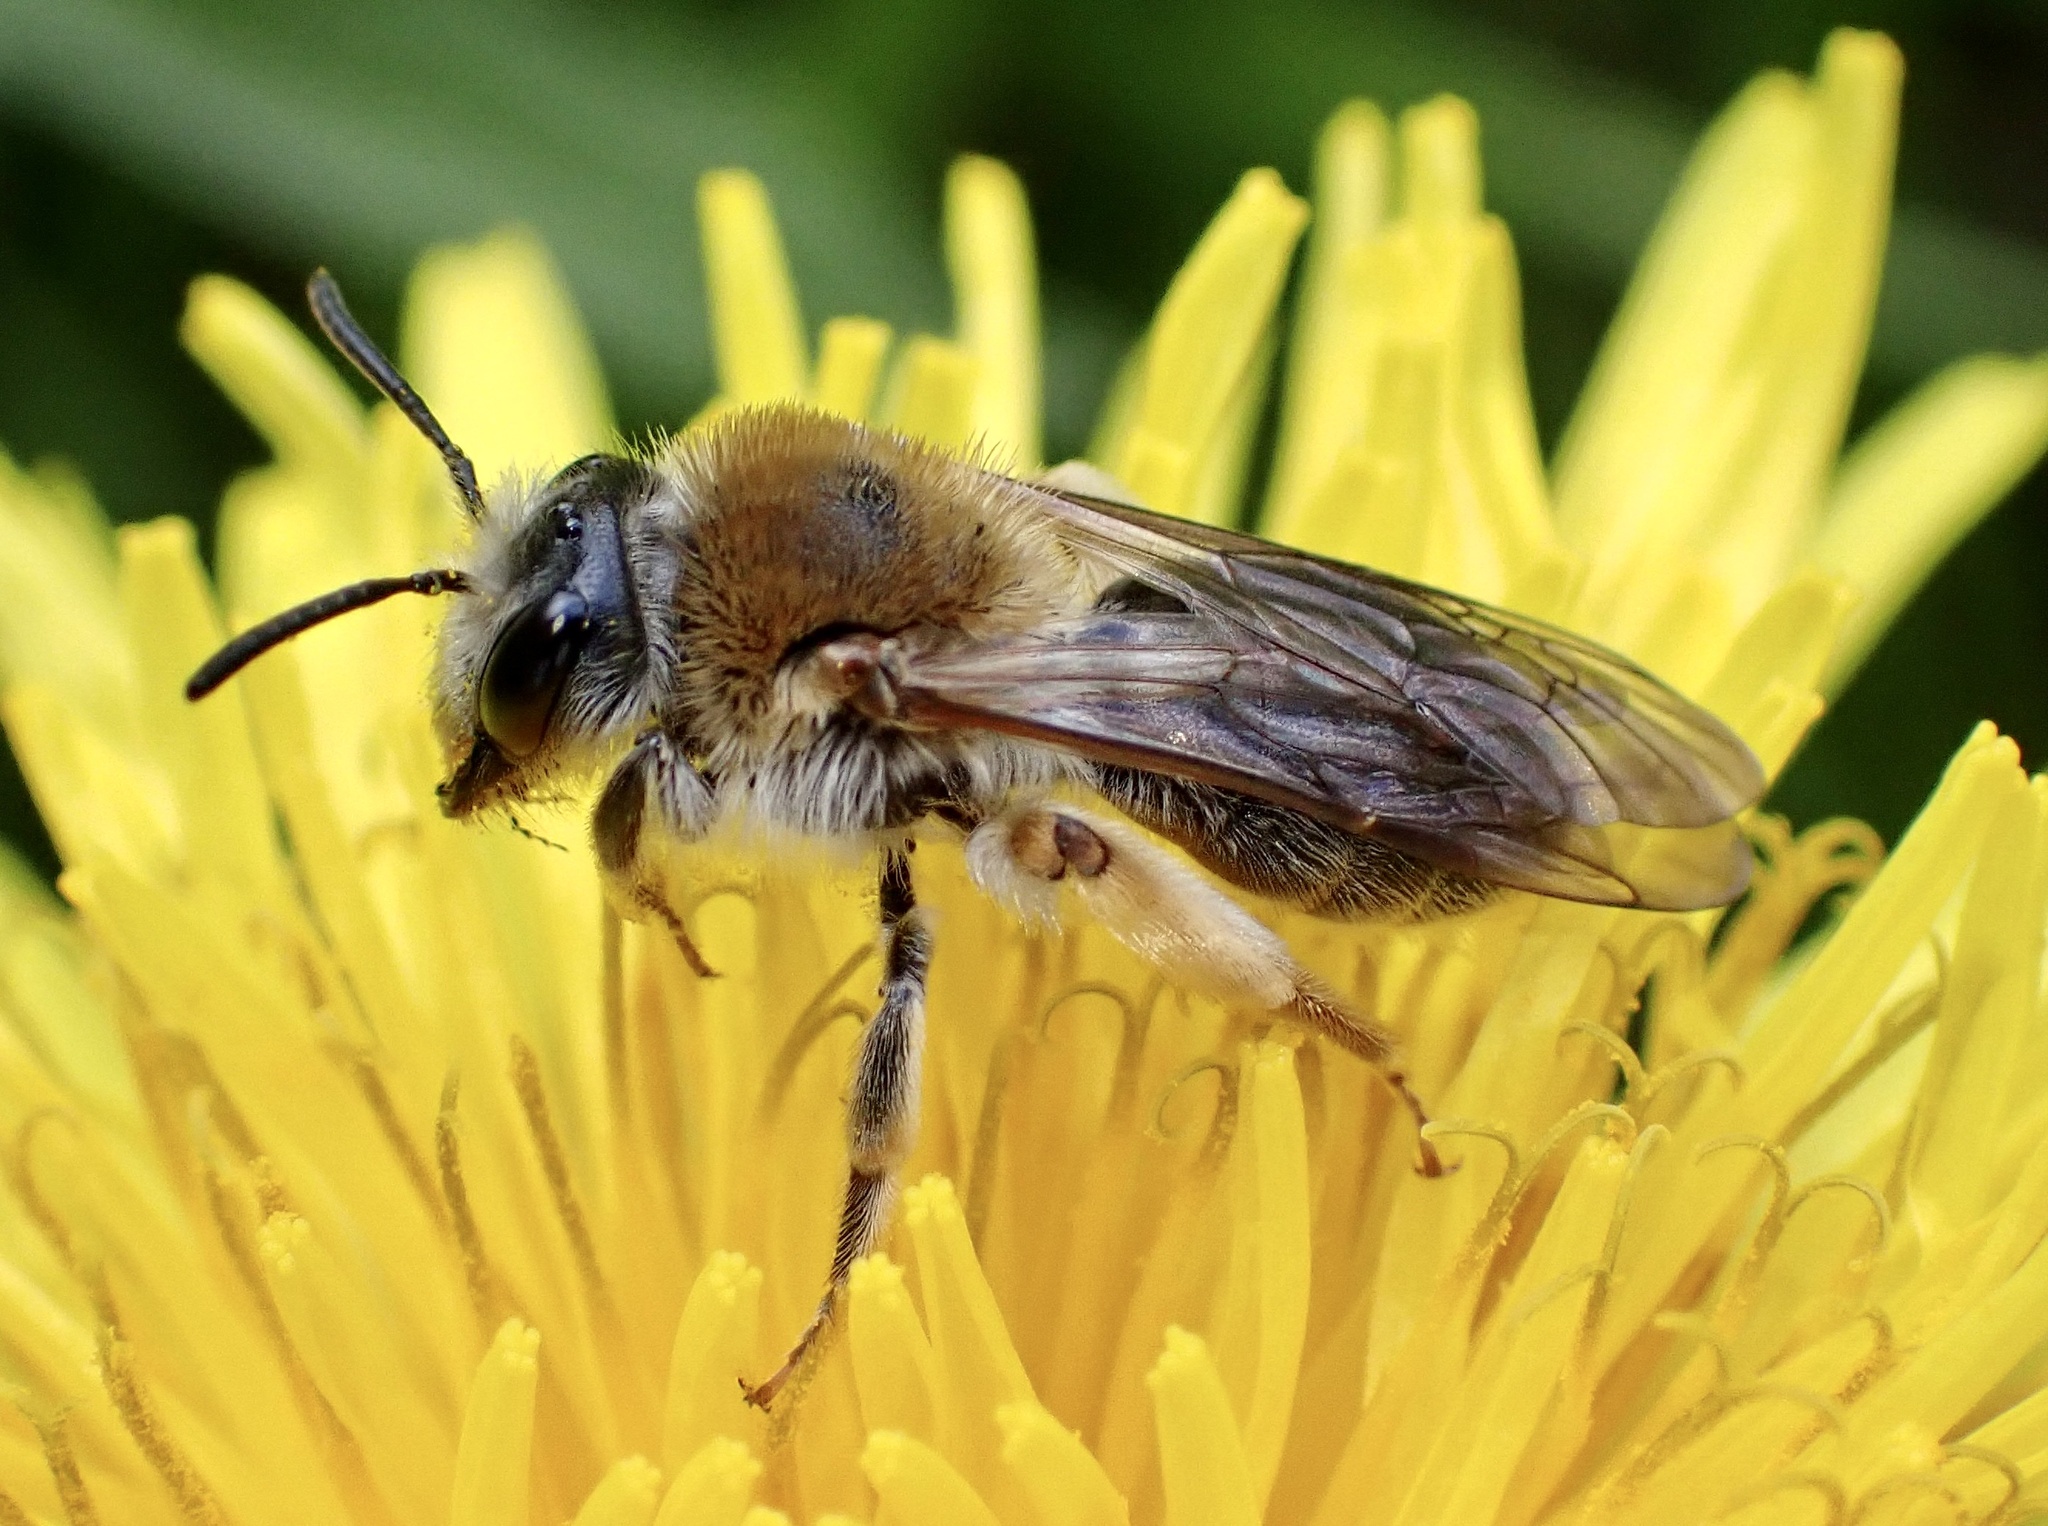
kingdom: Animalia
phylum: Arthropoda
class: Insecta
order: Hymenoptera
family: Andrenidae
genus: Andrena
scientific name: Andrena haemorrhoa
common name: Early mining bee
